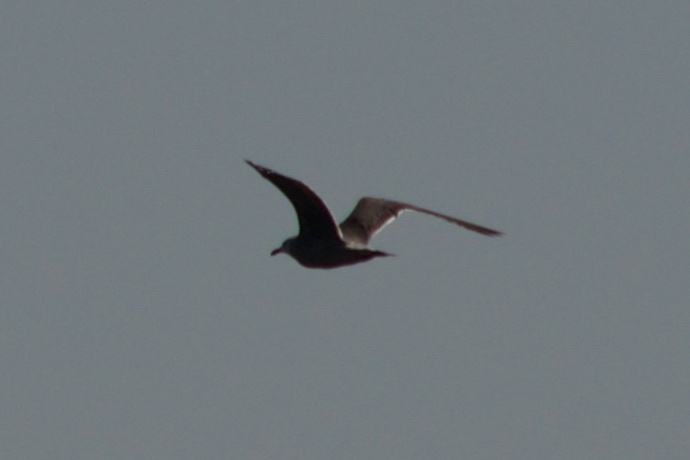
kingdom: Animalia
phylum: Chordata
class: Aves
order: Charadriiformes
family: Laridae
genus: Larus
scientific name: Larus heermanni
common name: Heermann's gull
